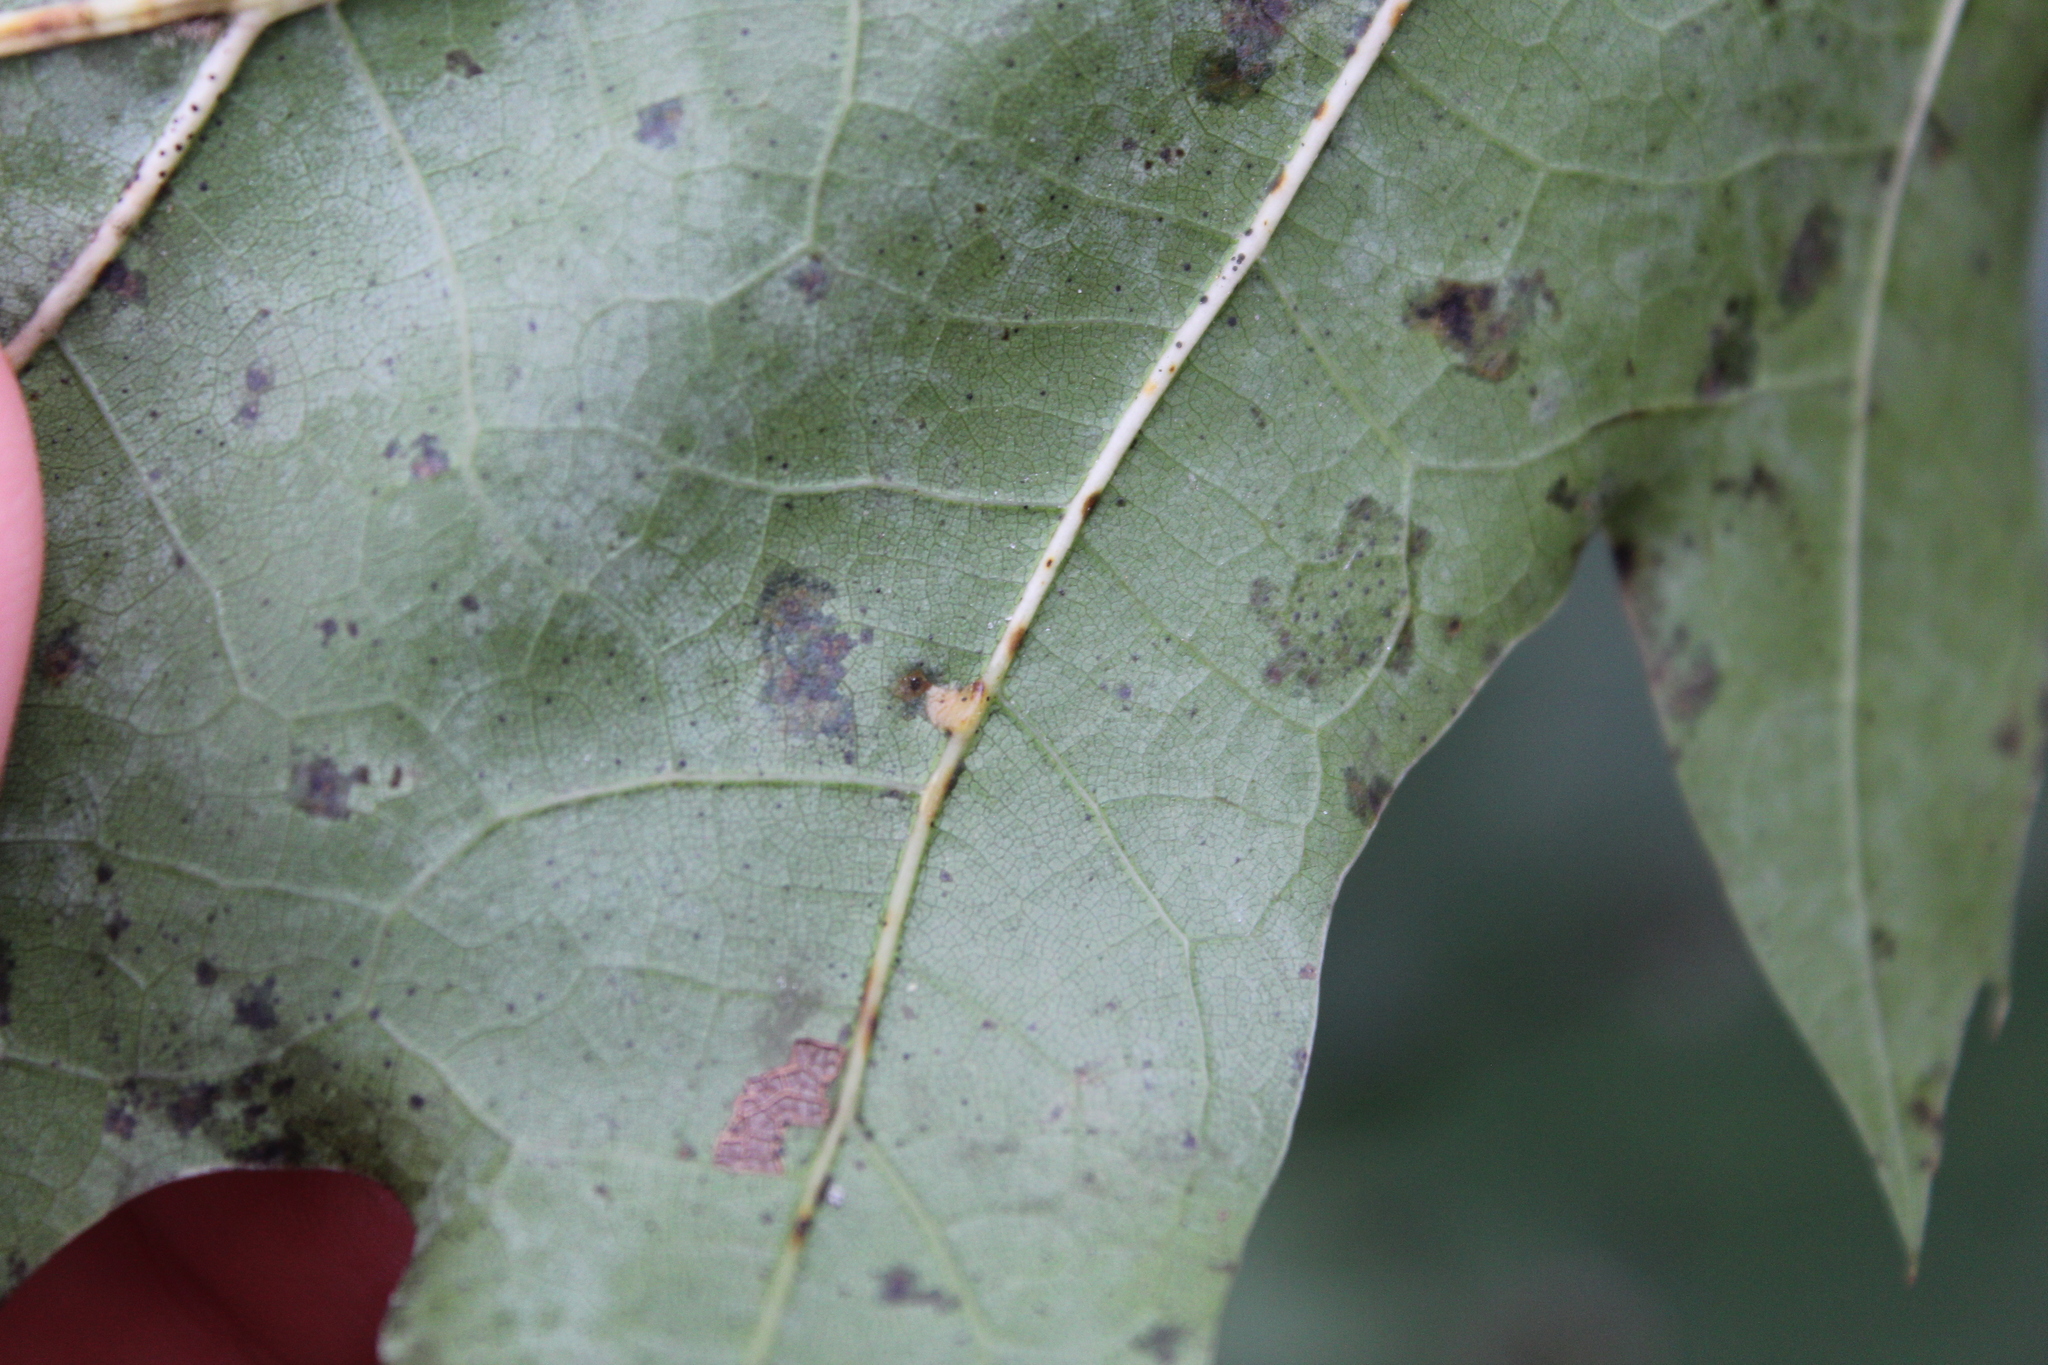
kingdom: Animalia
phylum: Arthropoda
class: Insecta
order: Diptera
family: Cecidomyiidae
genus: Polystepha
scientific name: Polystepha pilulae
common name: Oak leaf gall midge
